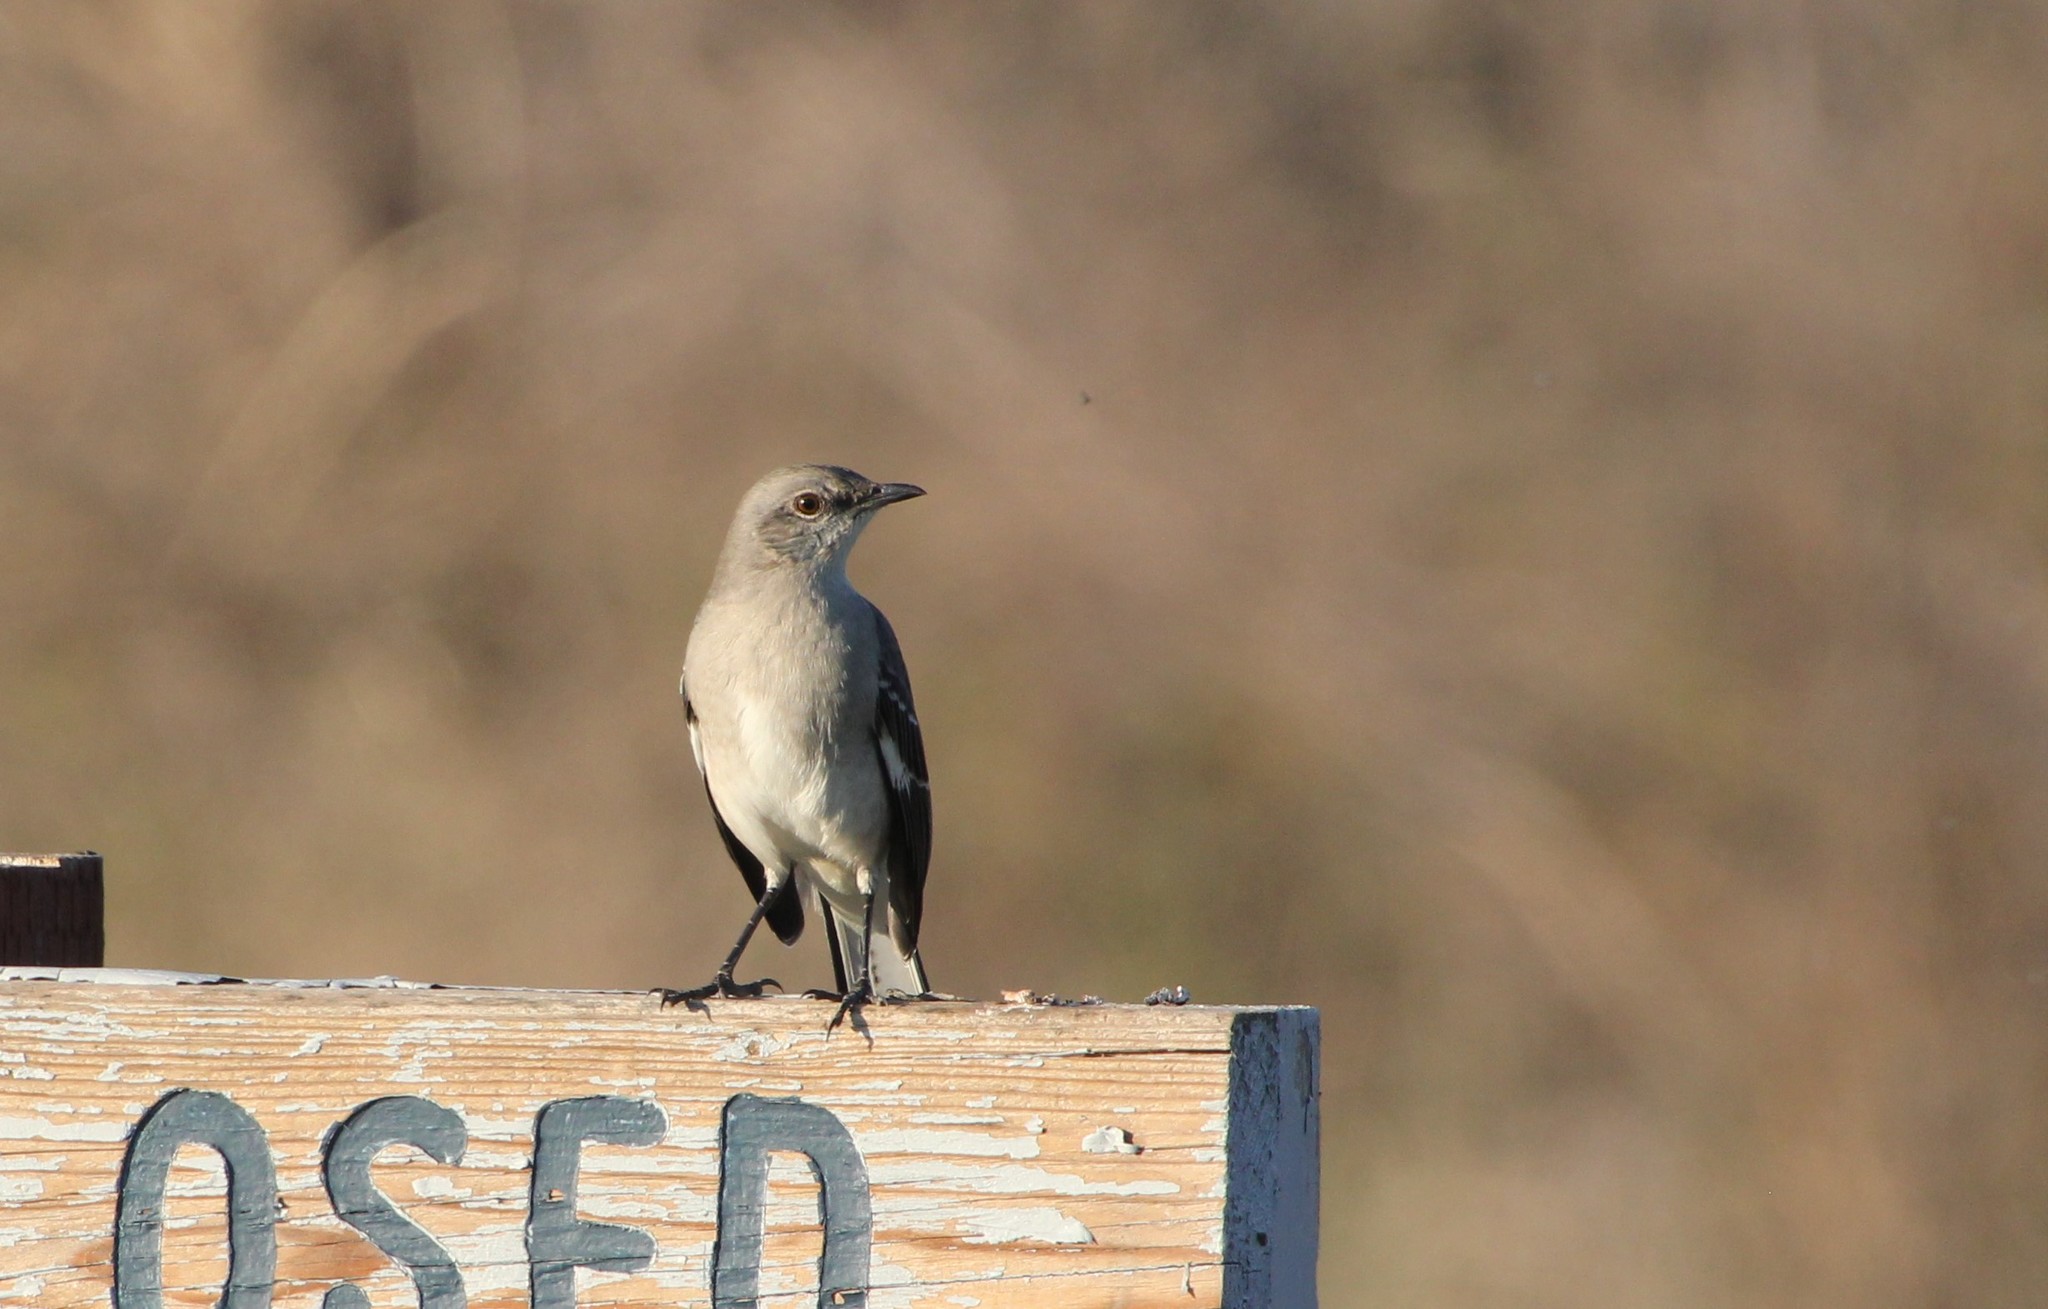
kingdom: Animalia
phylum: Chordata
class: Aves
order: Passeriformes
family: Mimidae
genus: Mimus
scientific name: Mimus polyglottos
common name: Northern mockingbird
